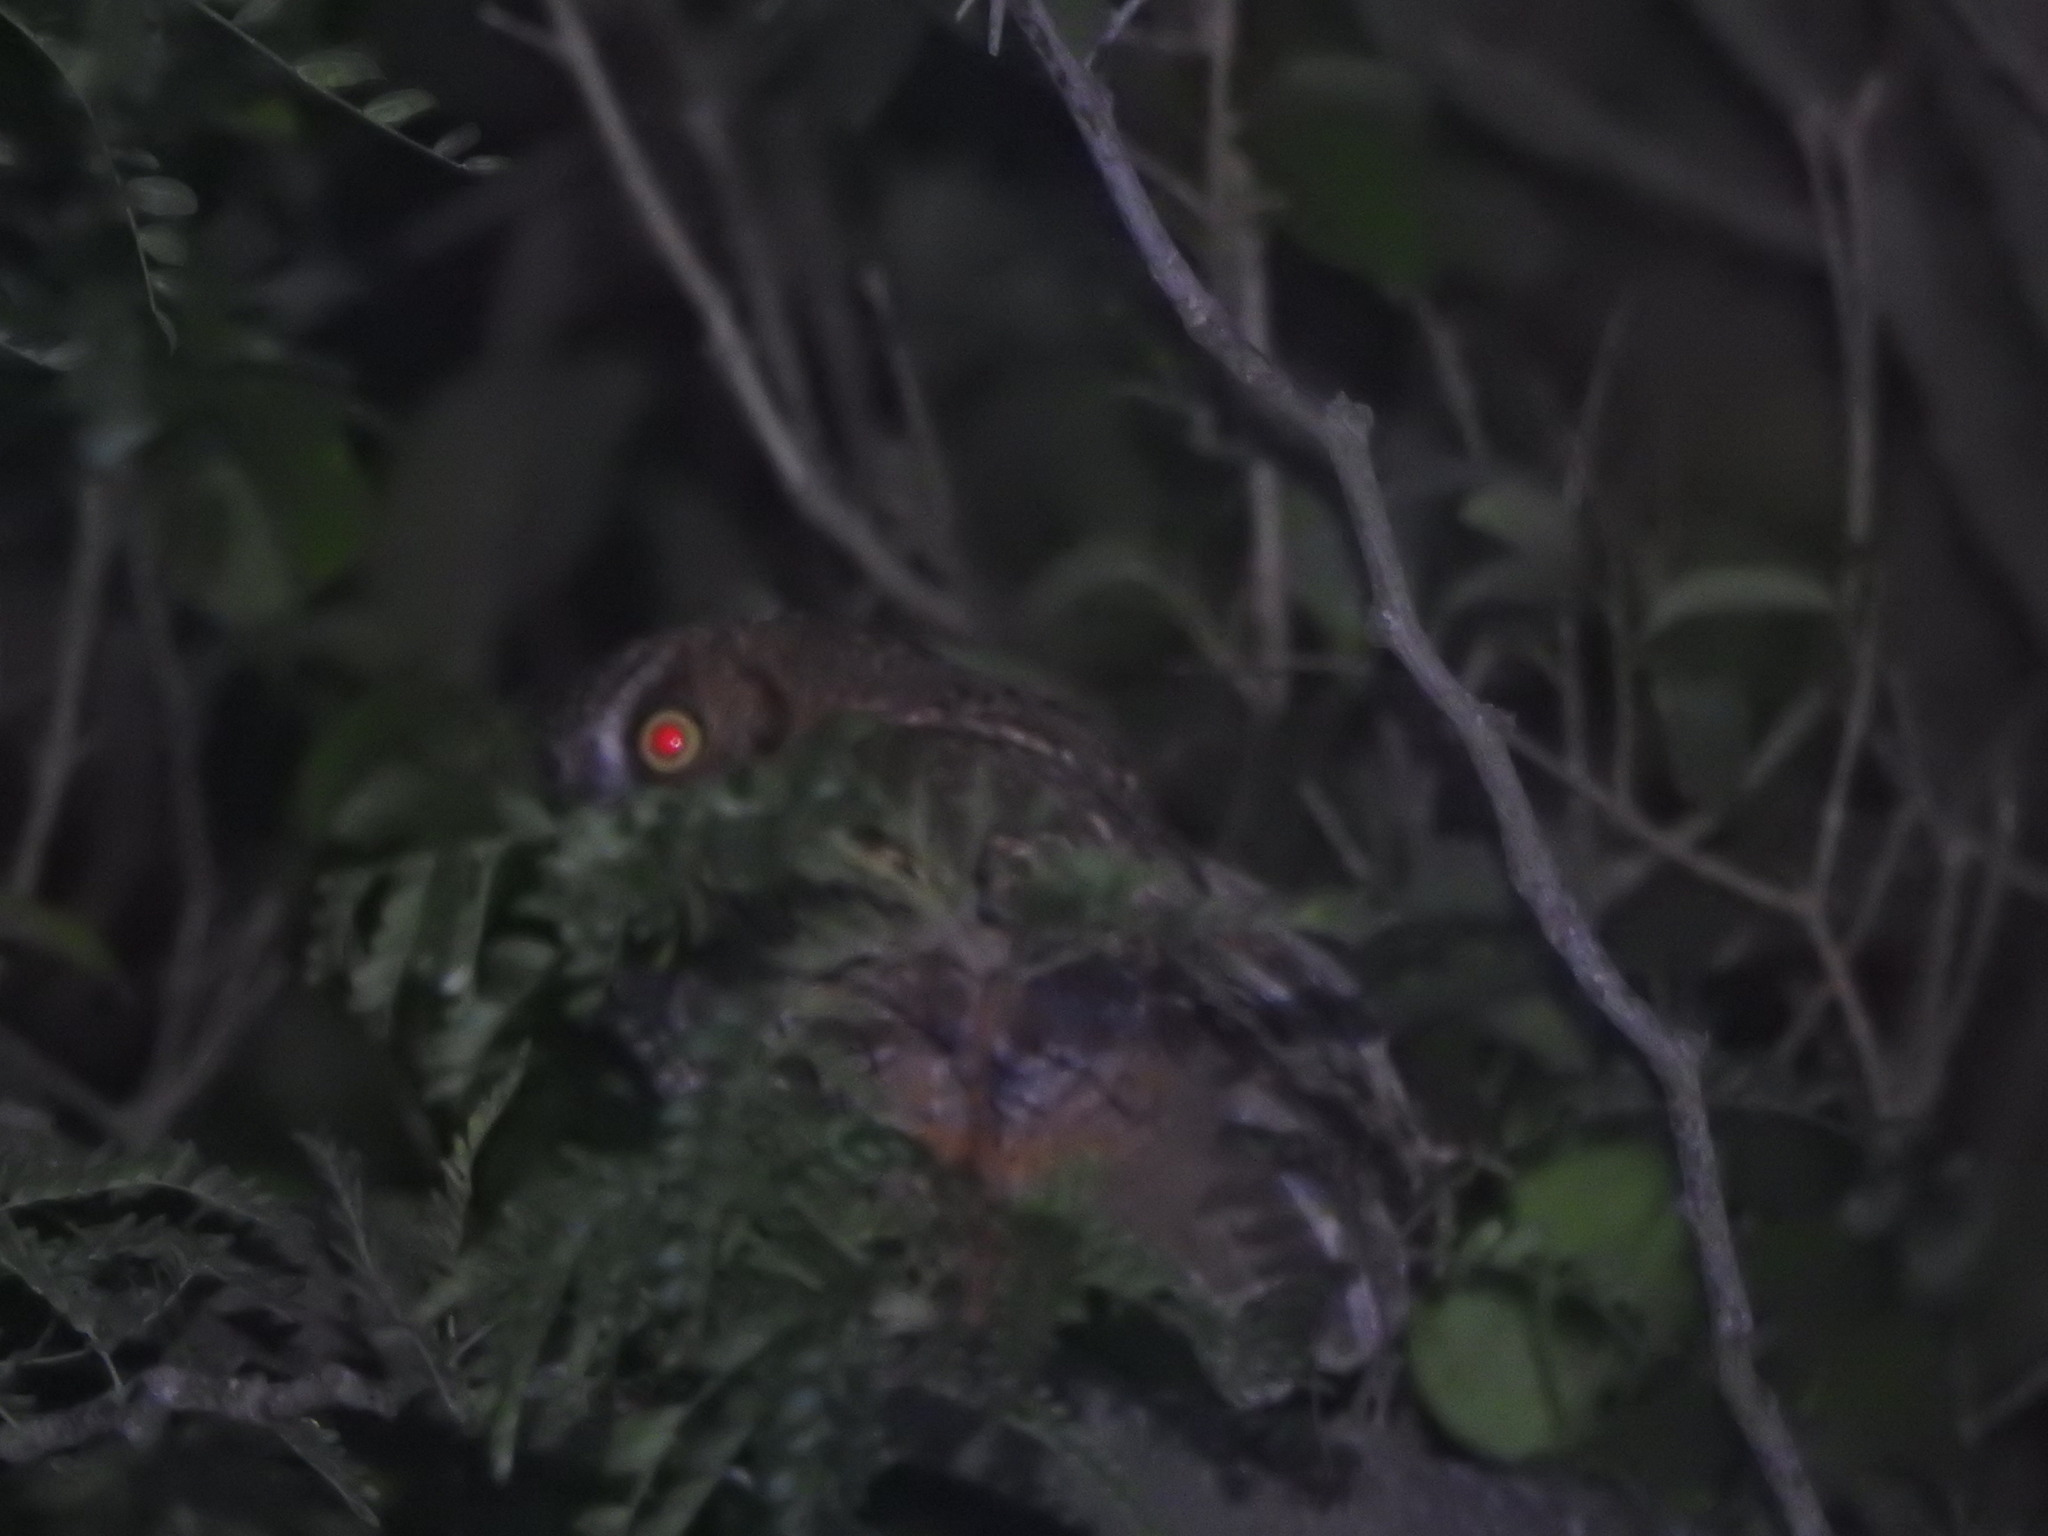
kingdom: Animalia
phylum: Chordata
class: Aves
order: Strigiformes
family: Strigidae
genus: Megascops
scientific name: Megascops choliba
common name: Tropical screech-owl
